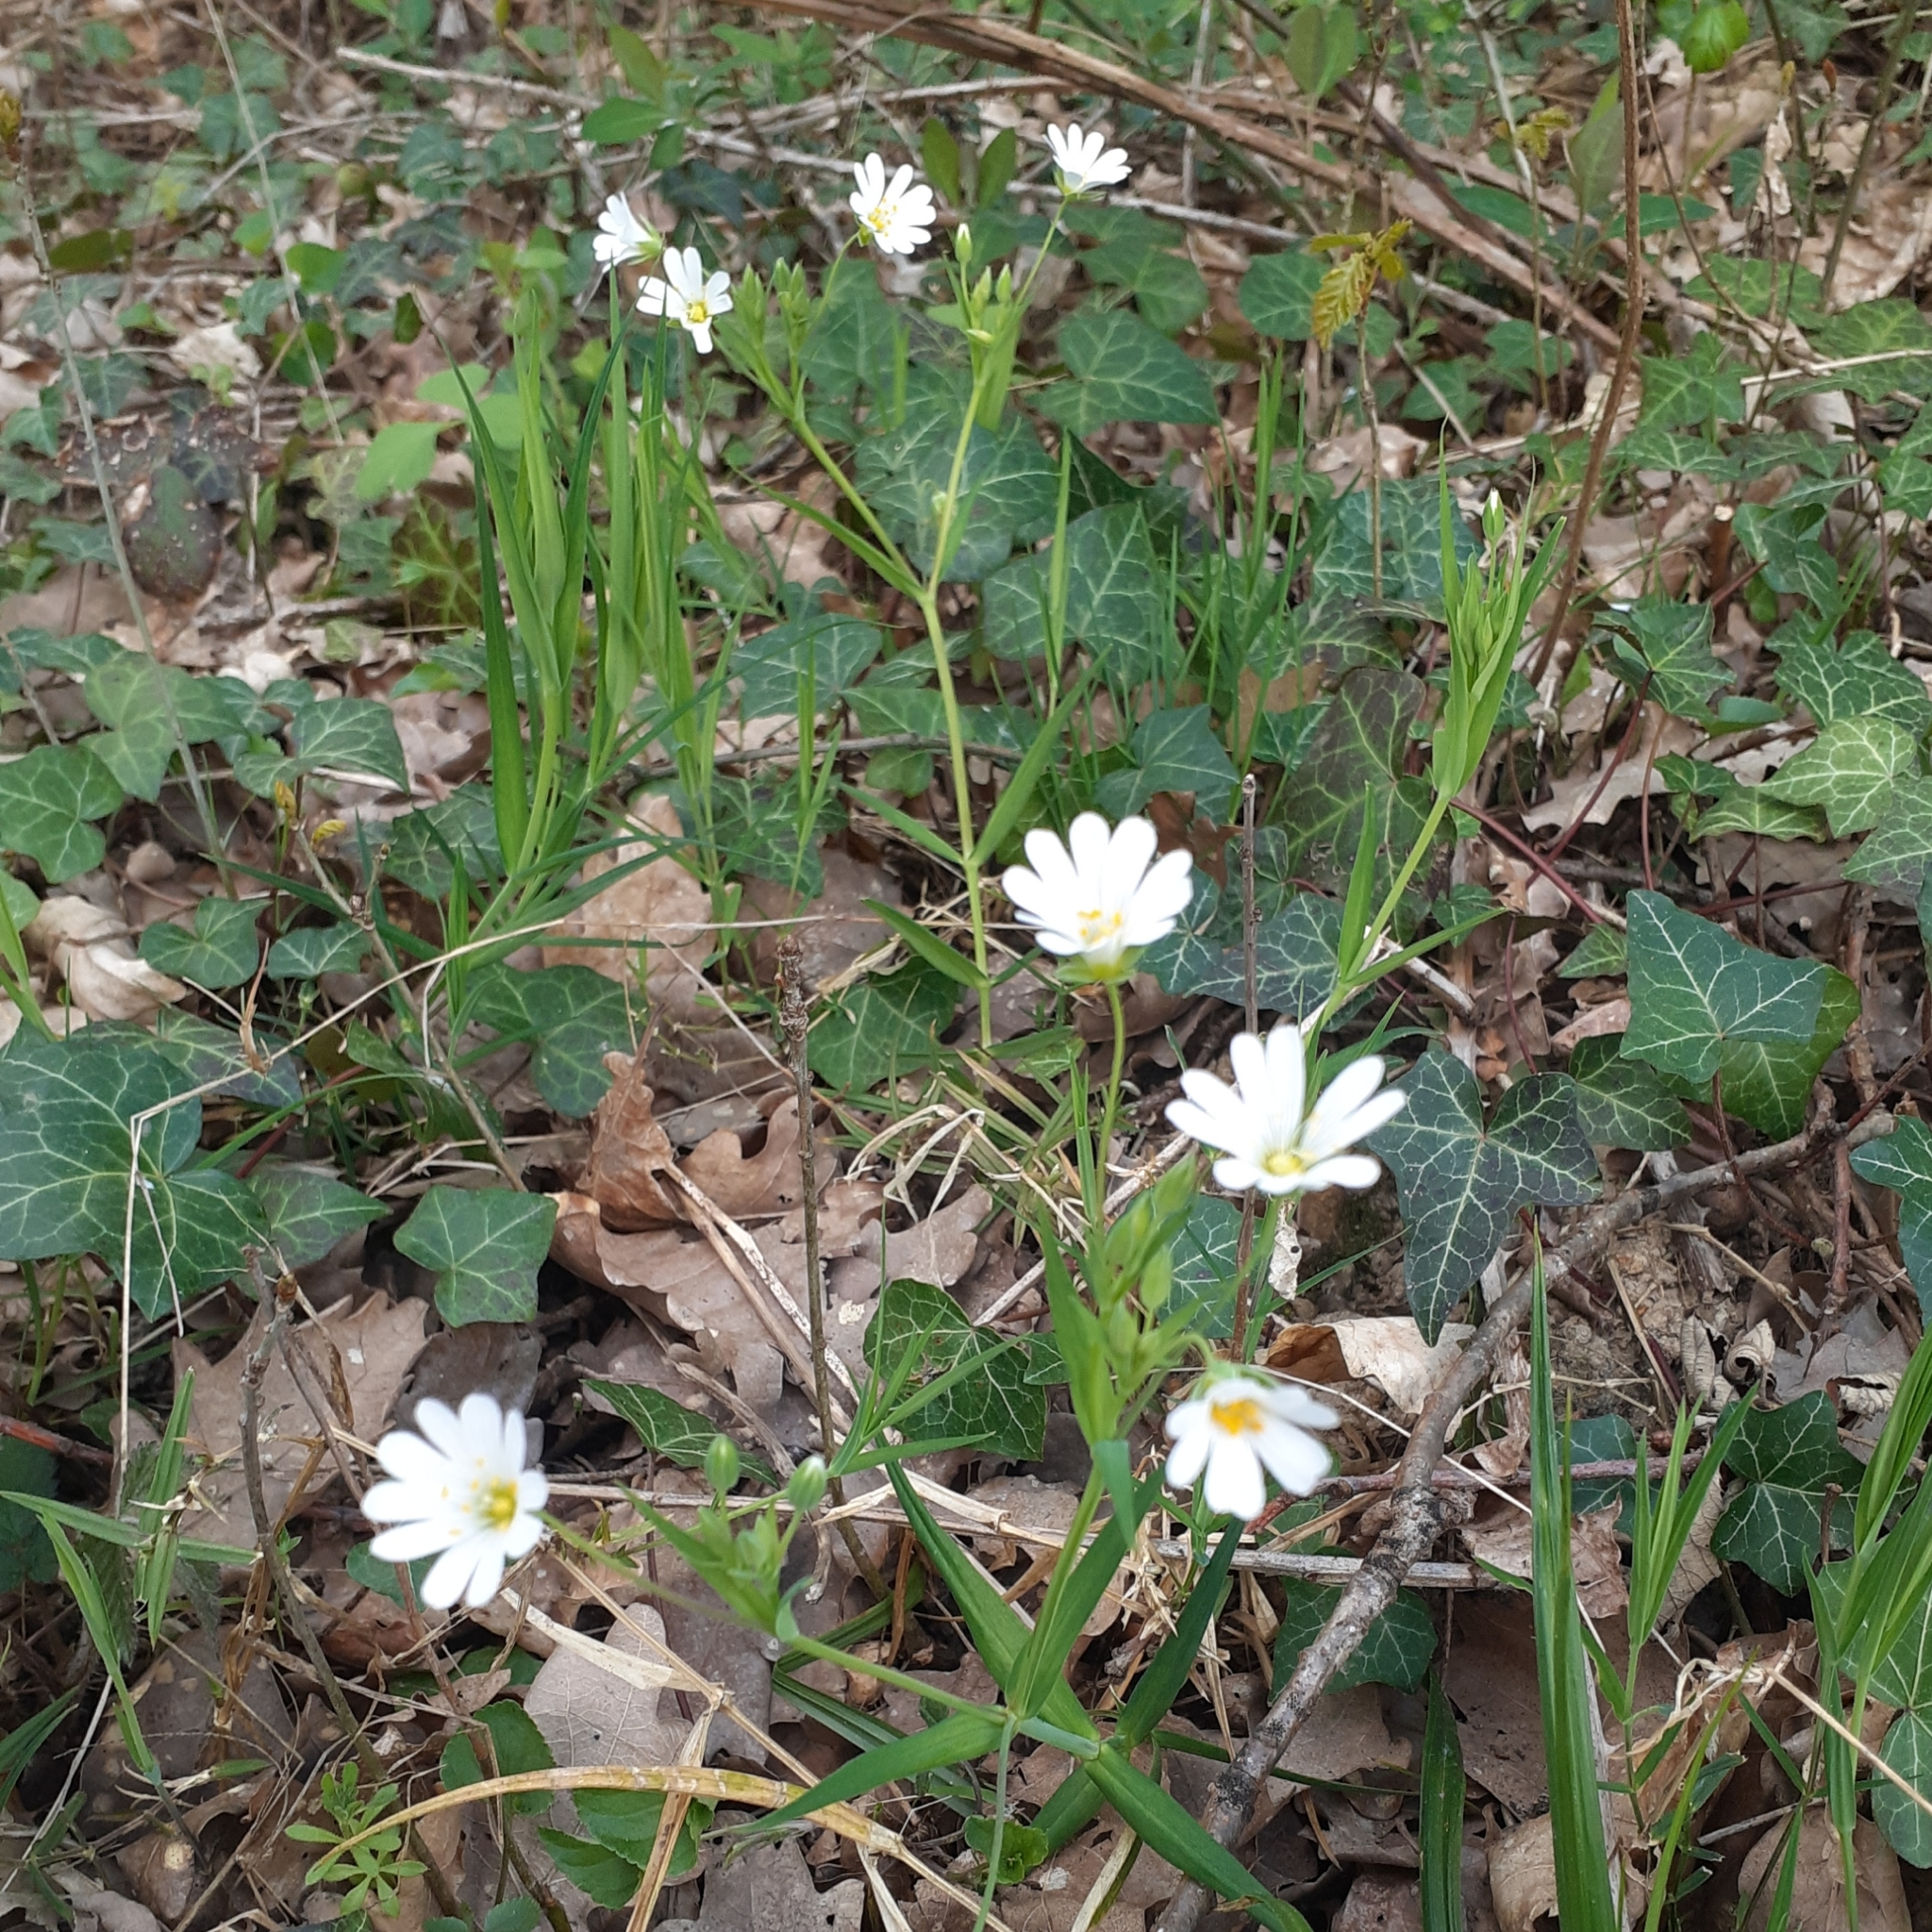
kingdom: Plantae
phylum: Tracheophyta
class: Magnoliopsida
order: Caryophyllales
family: Caryophyllaceae
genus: Rabelera
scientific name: Rabelera holostea
